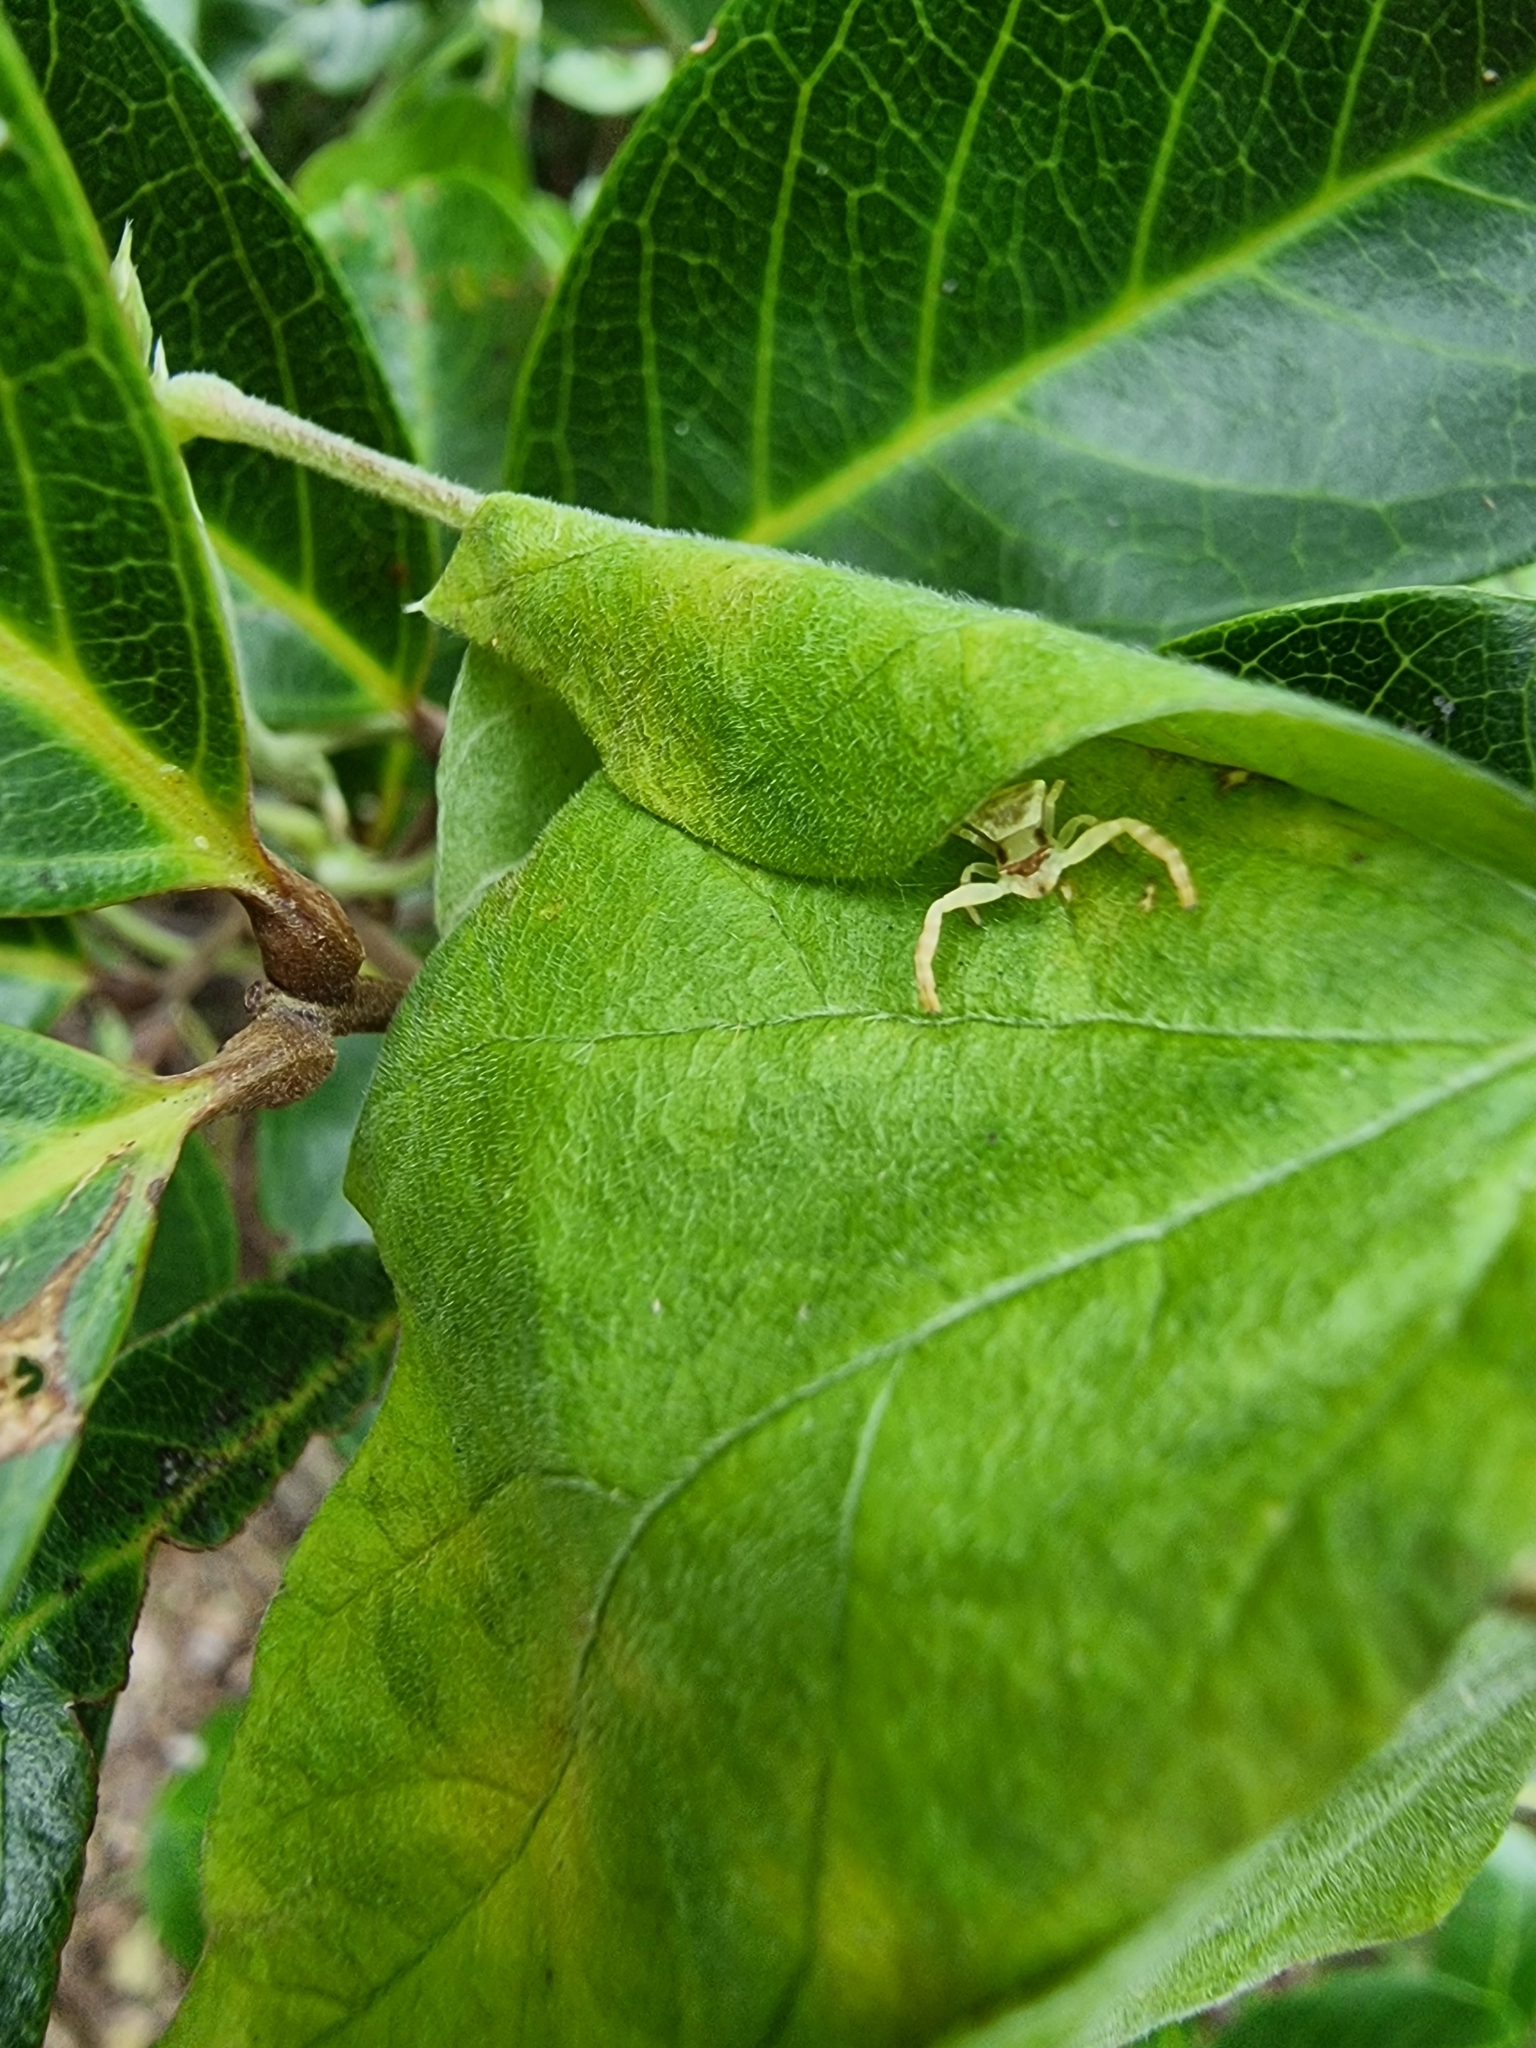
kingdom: Animalia
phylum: Arthropoda
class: Arachnida
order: Araneae
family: Thomisidae
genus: Thomisus
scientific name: Thomisus spectabilis
